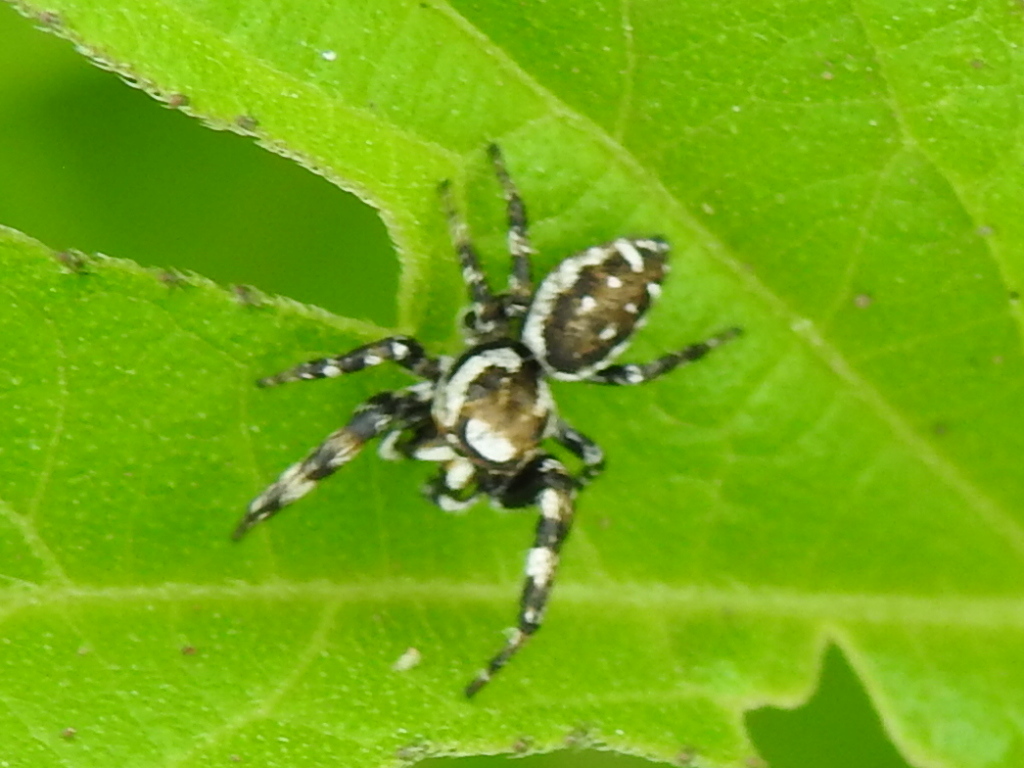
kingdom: Animalia
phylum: Arthropoda
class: Arachnida
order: Araneae
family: Salticidae
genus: Metaphidippus
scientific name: Metaphidippus chera
